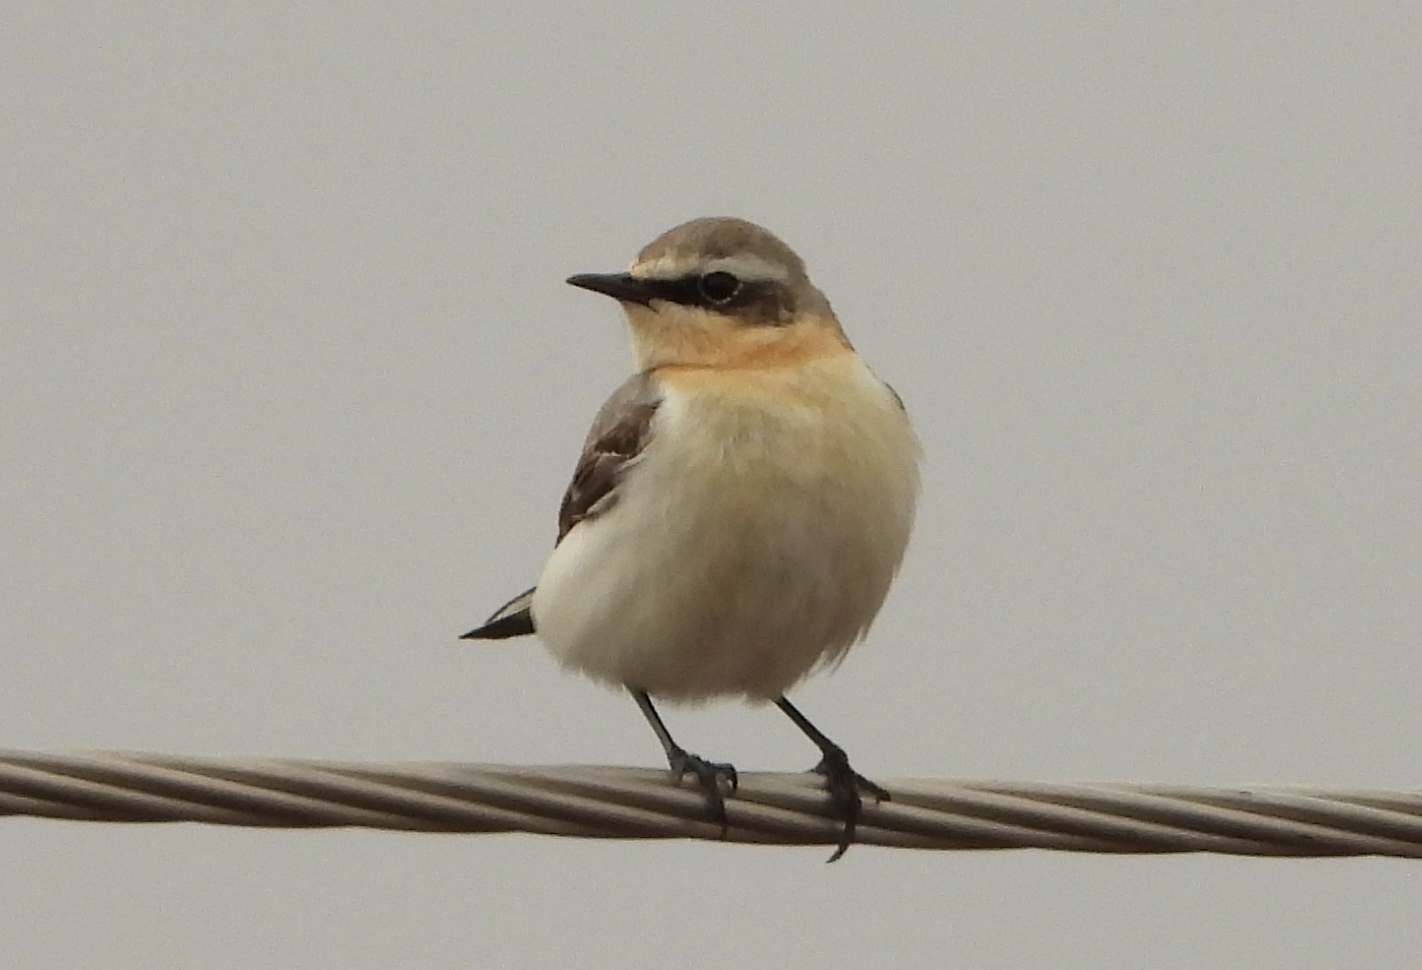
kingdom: Animalia
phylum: Chordata
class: Aves
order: Passeriformes
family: Muscicapidae
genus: Oenanthe
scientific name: Oenanthe oenanthe
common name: Northern wheatear
